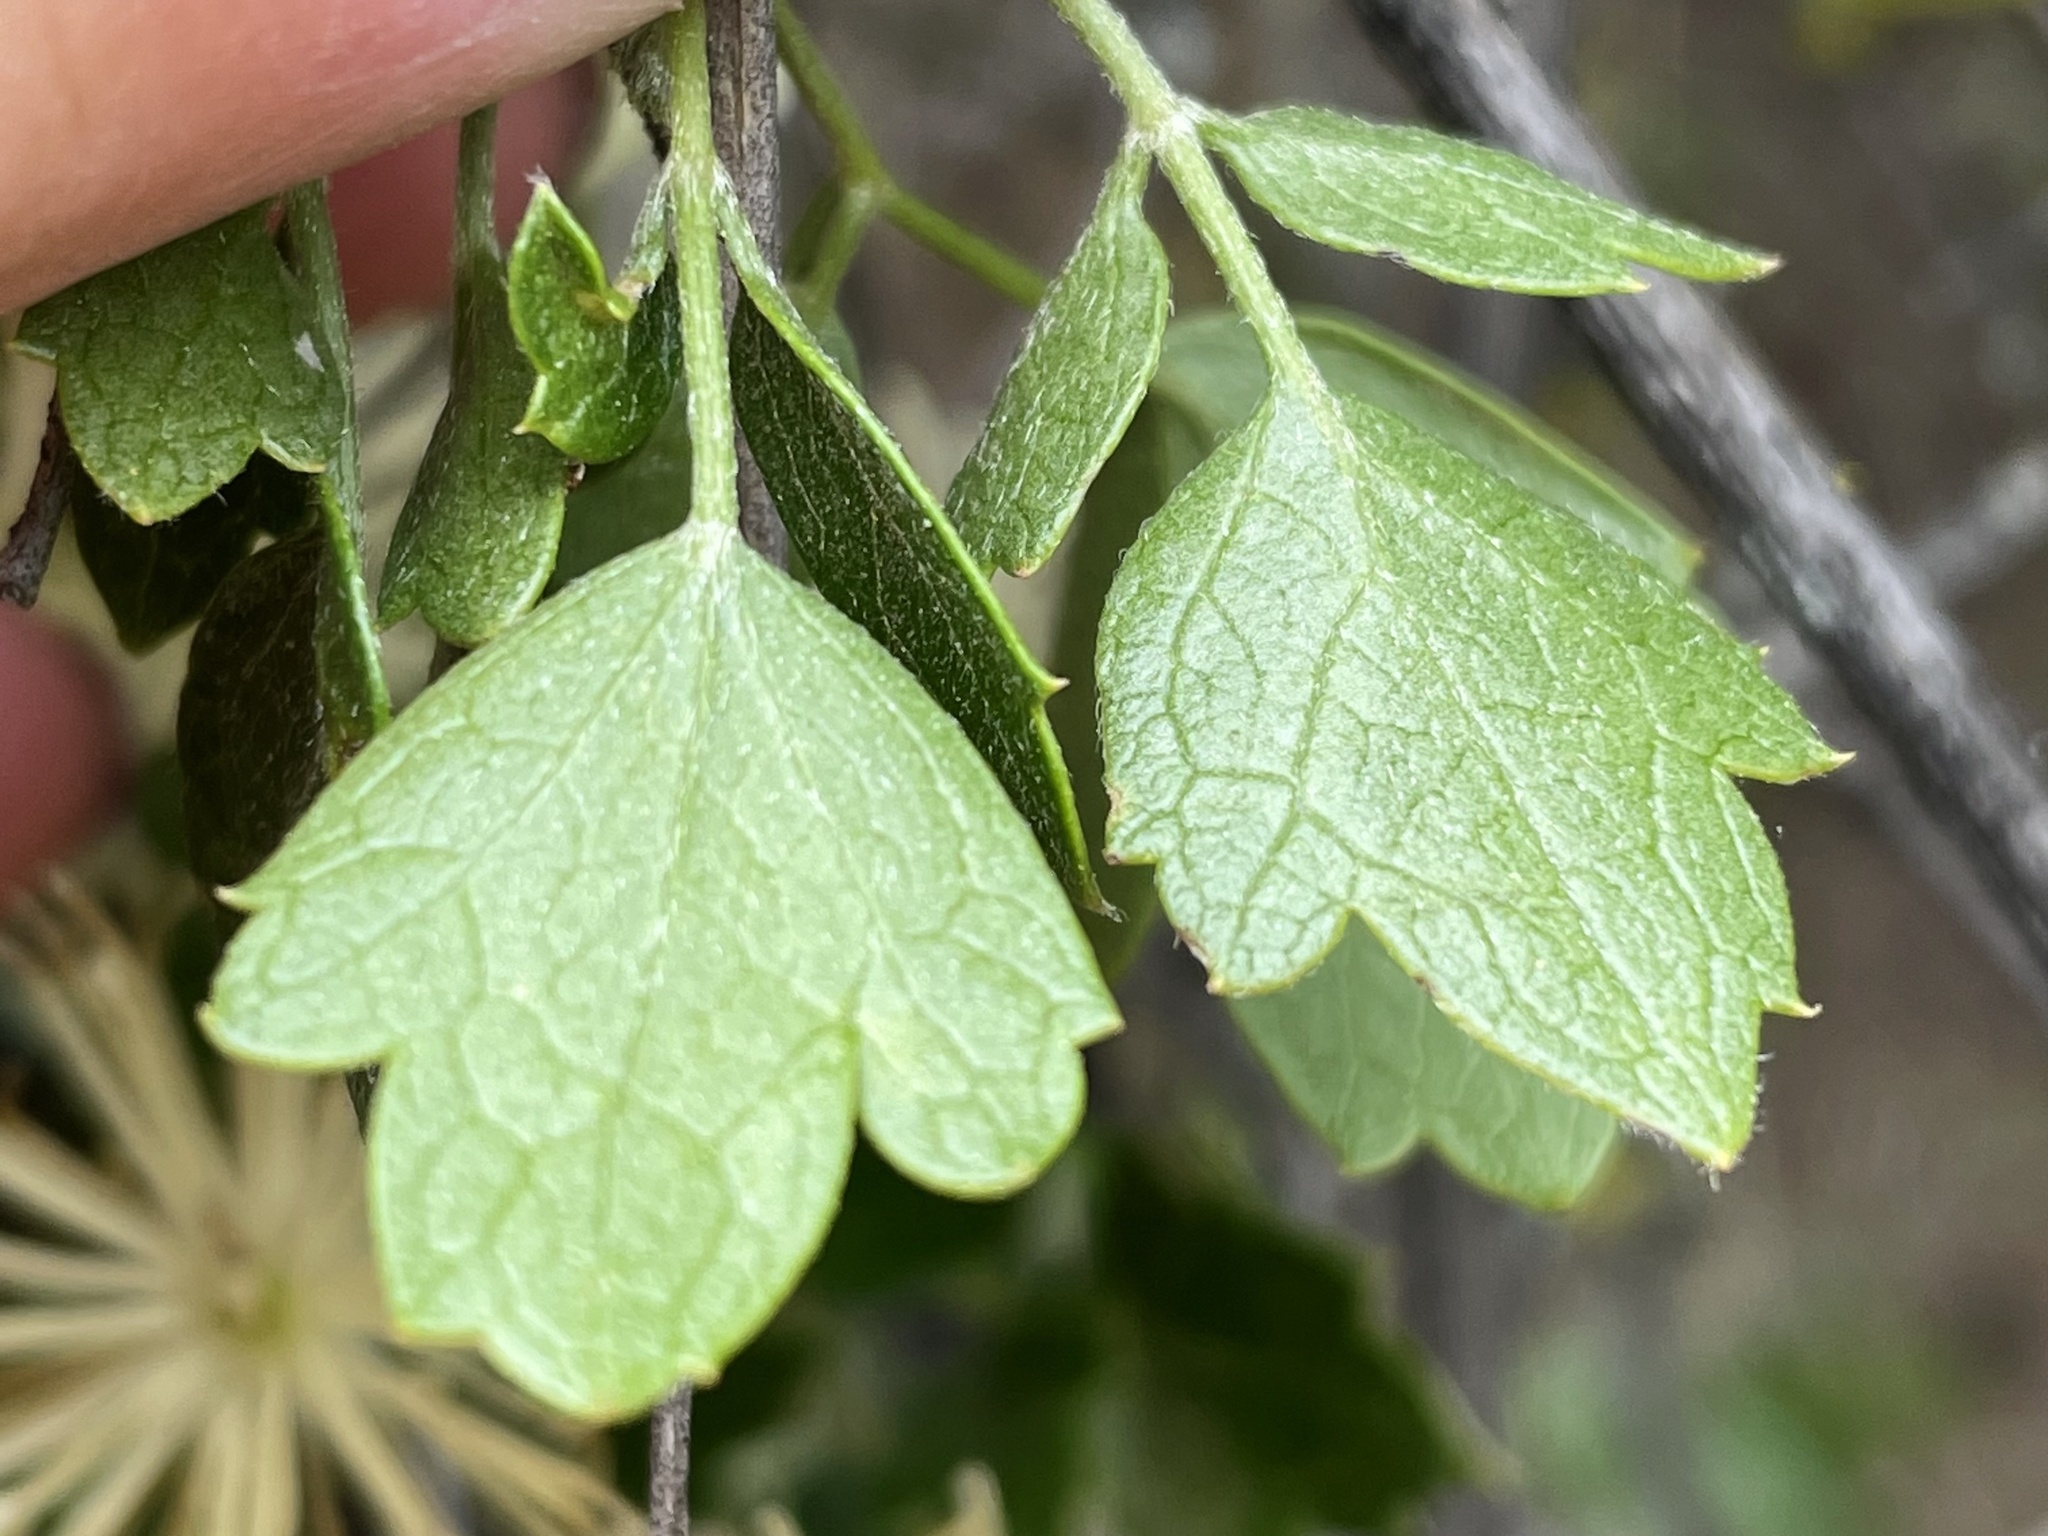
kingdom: Plantae
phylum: Tracheophyta
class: Magnoliopsida
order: Ranunculales
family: Ranunculaceae
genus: Clematis
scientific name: Clematis pauciflora
